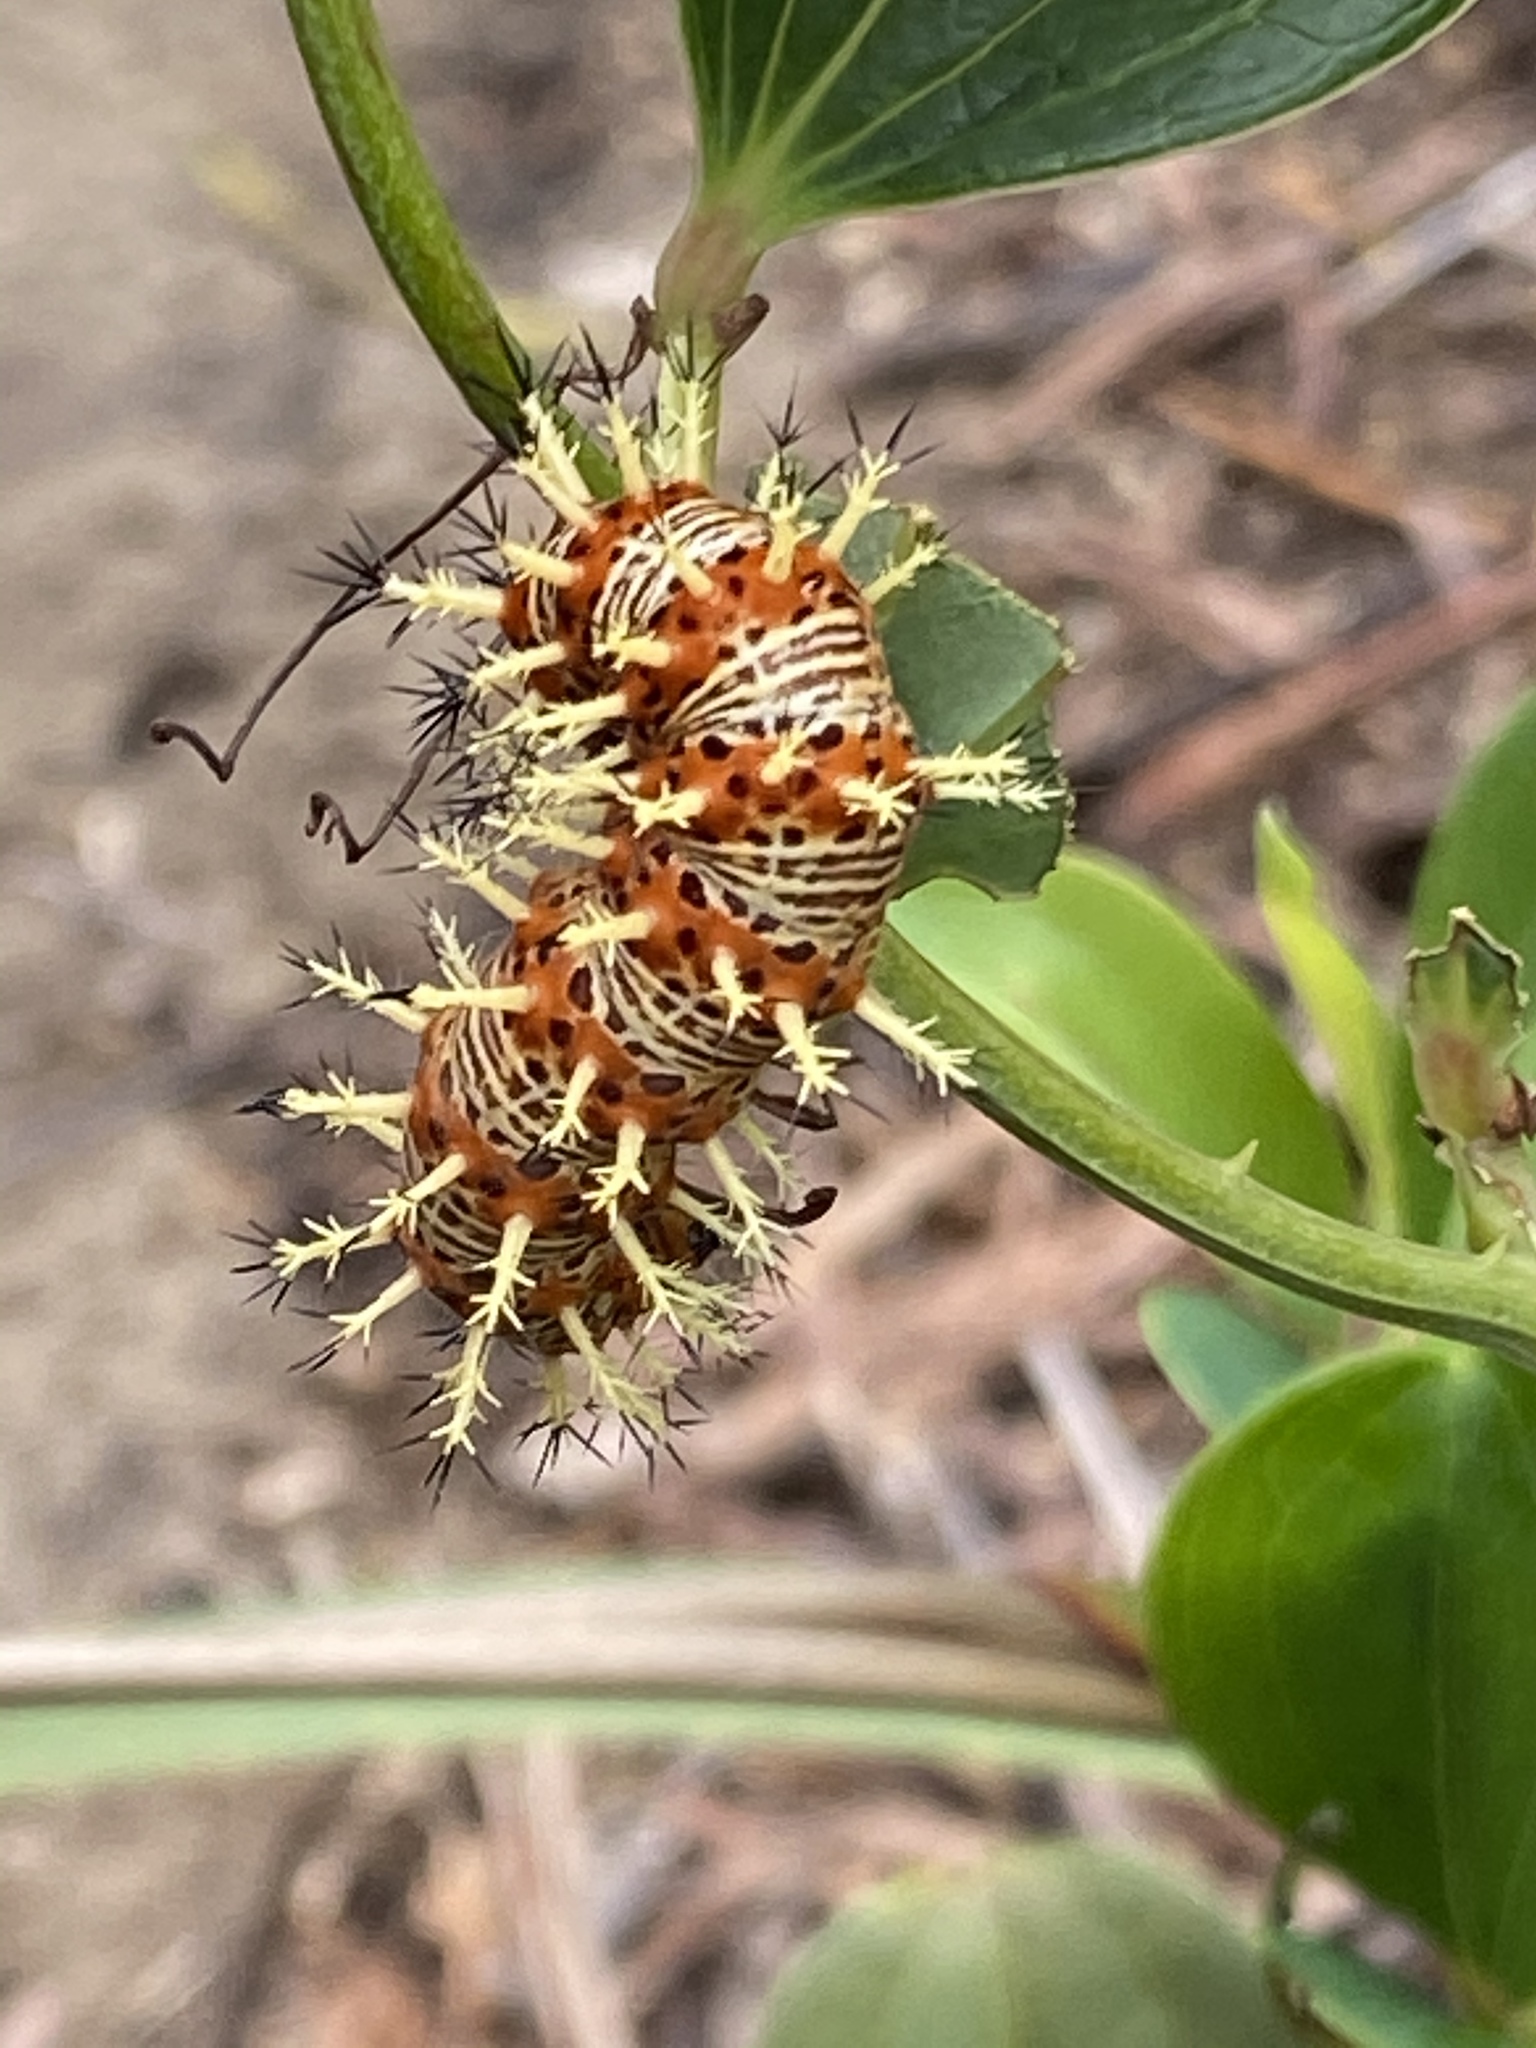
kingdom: Animalia
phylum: Arthropoda
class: Insecta
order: Lepidoptera
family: Nymphalidae
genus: Vanessa
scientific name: Vanessa Kaniska canace
